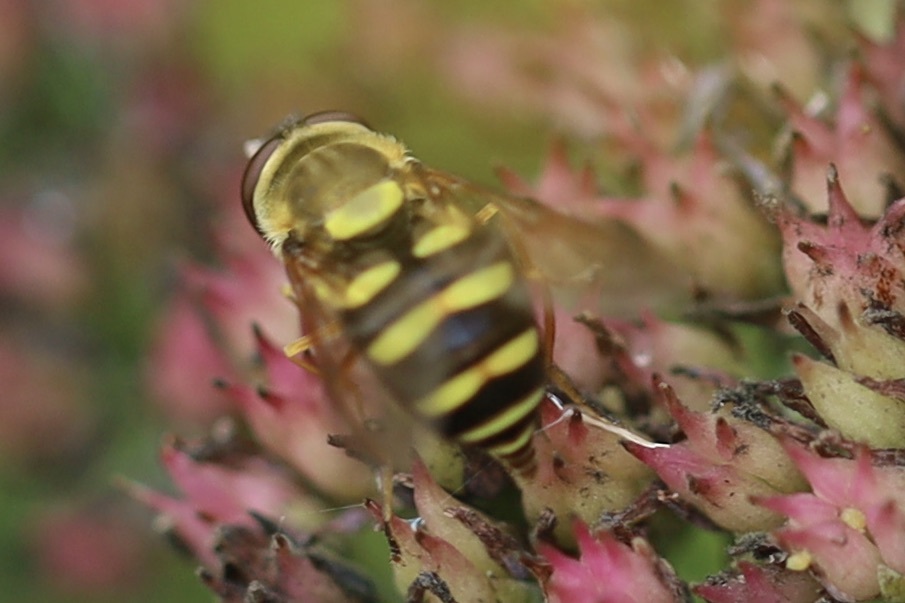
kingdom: Animalia
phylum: Arthropoda
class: Insecta
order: Diptera
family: Syrphidae
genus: Syrphus
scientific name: Syrphus opinator
